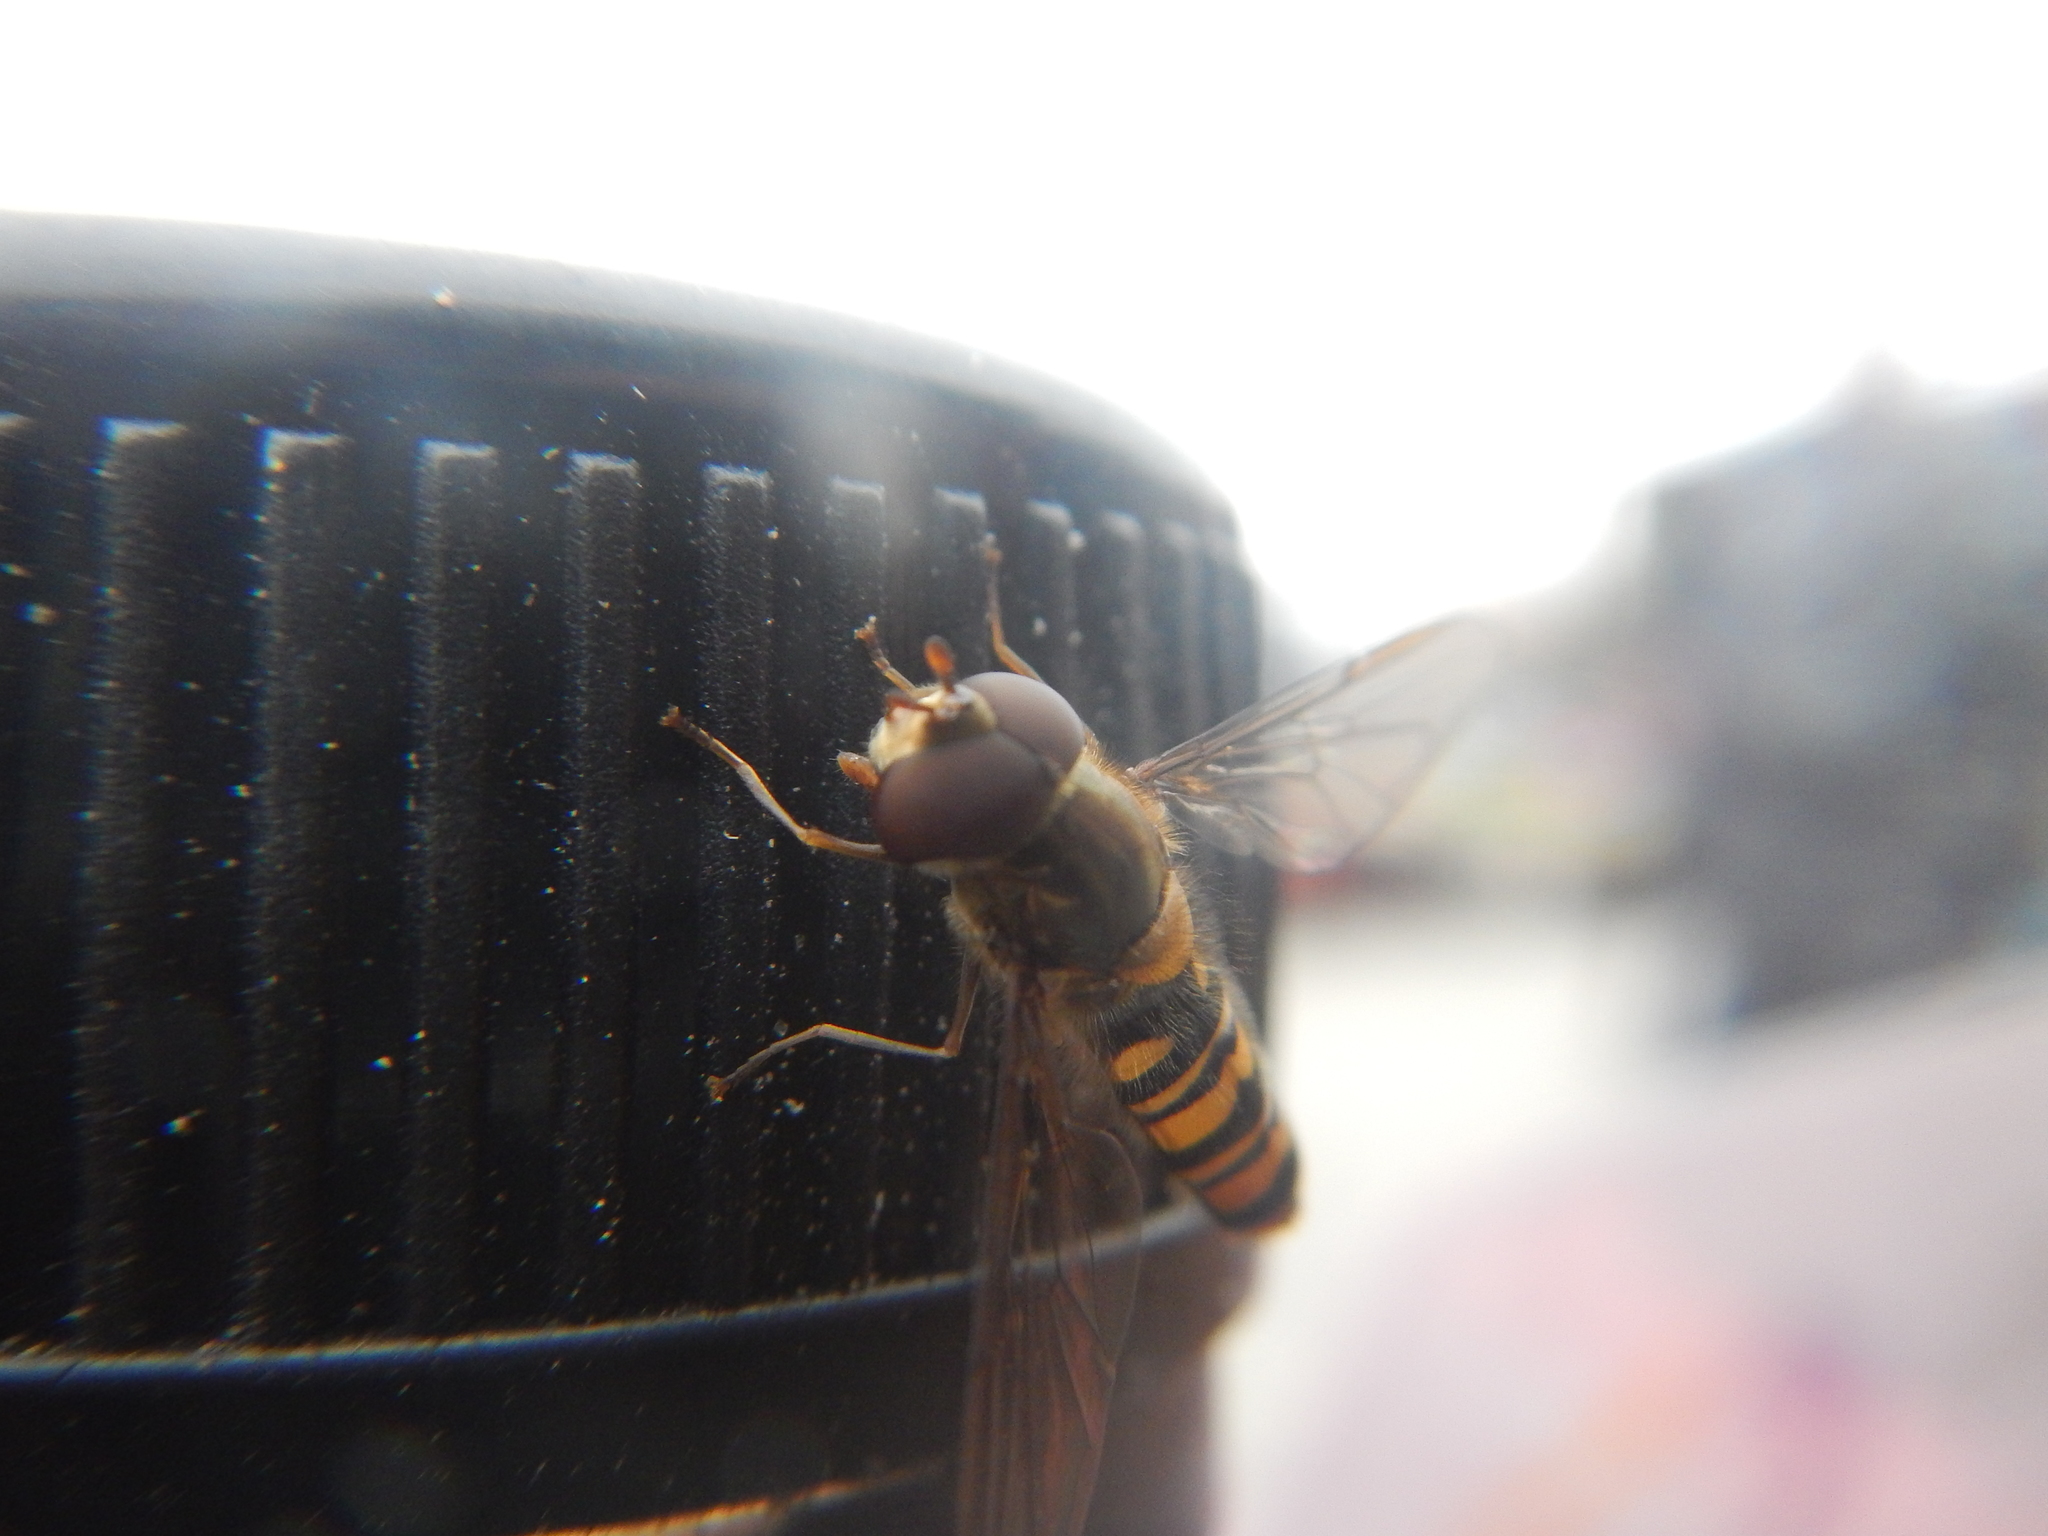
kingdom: Animalia
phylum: Arthropoda
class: Insecta
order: Diptera
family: Syrphidae
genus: Episyrphus
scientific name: Episyrphus balteatus
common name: Marmalade hoverfly
